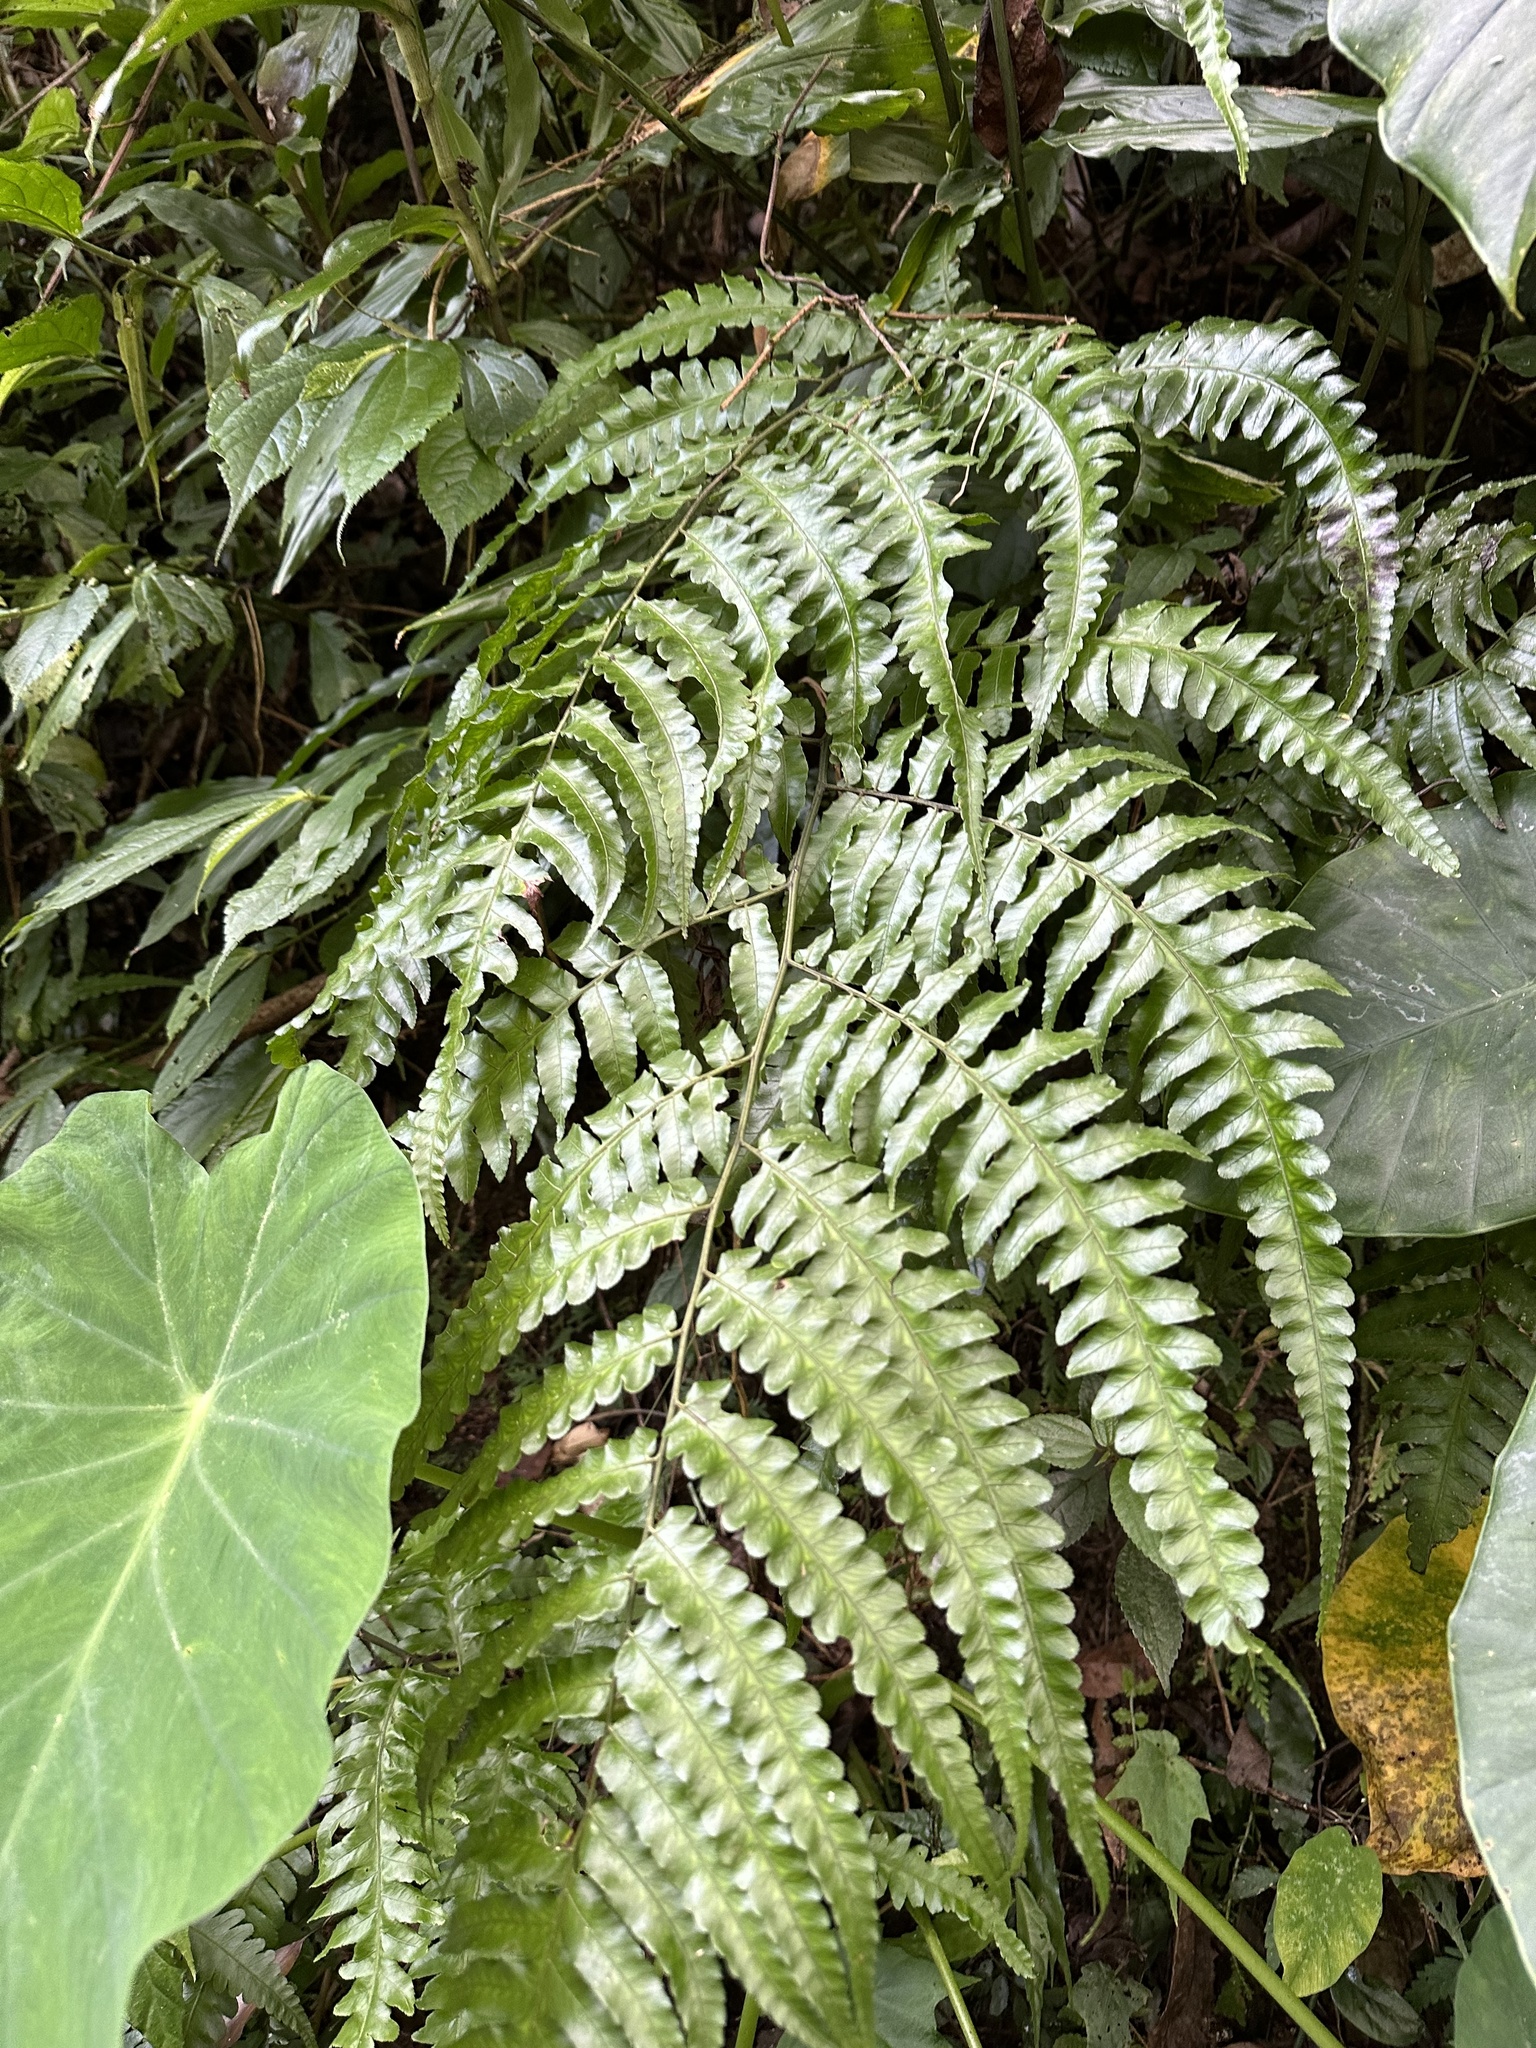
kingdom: Plantae
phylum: Tracheophyta
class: Polypodiopsida
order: Polypodiales
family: Athyriaceae
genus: Diplazium
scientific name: Diplazium dilatatum
